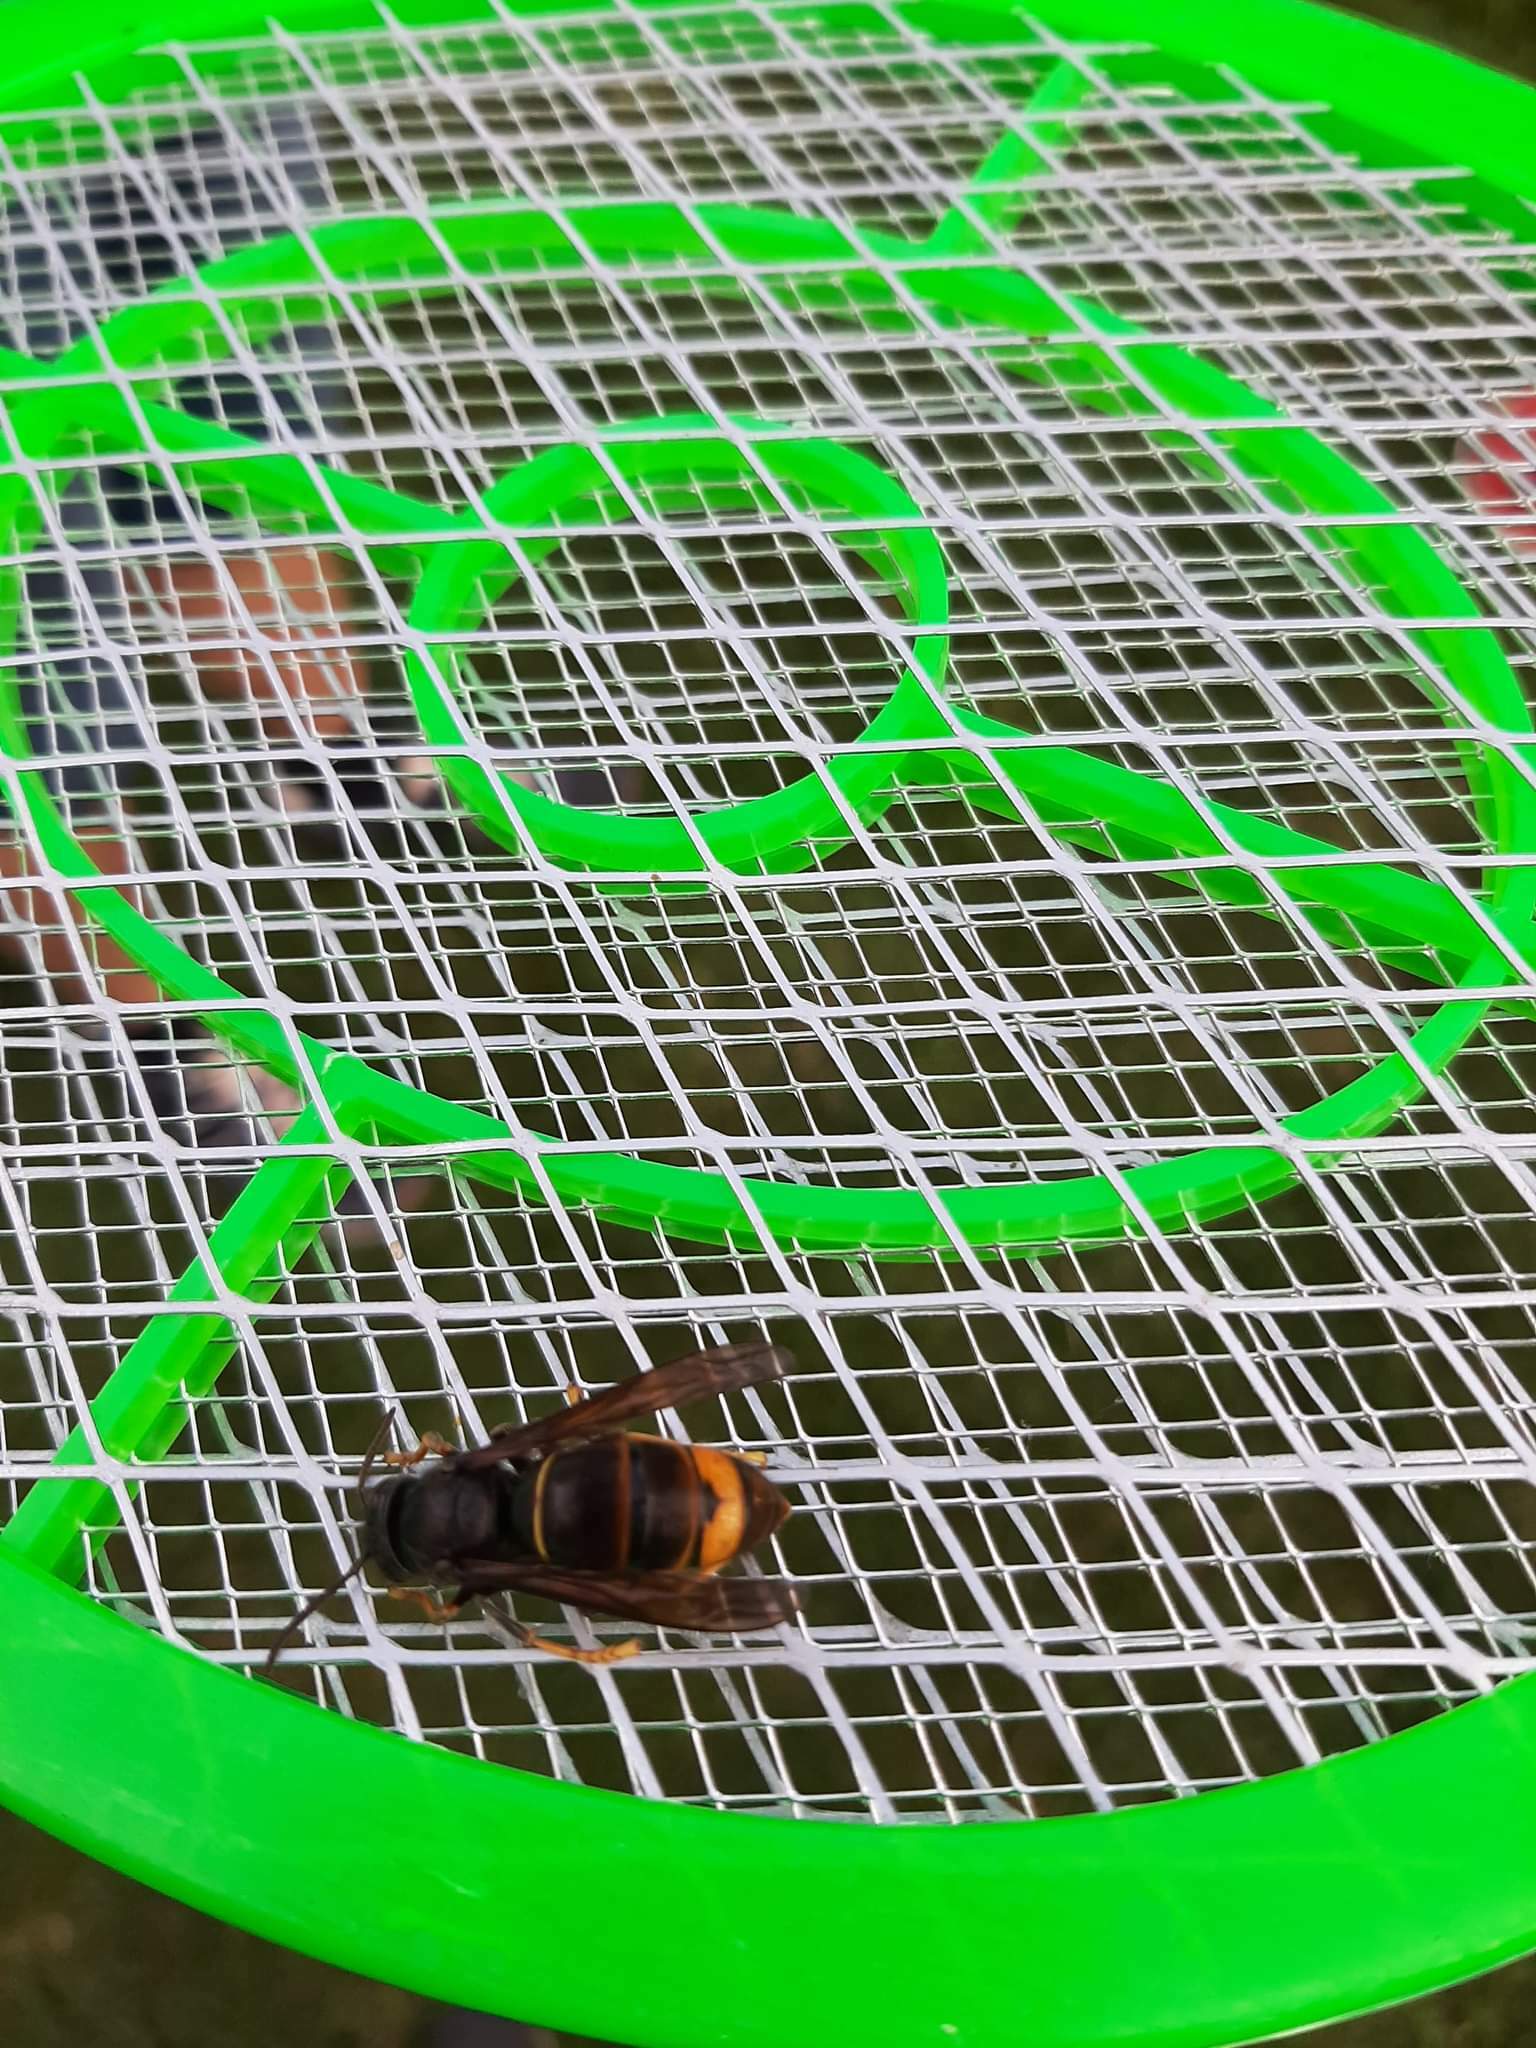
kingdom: Animalia
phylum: Arthropoda
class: Insecta
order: Hymenoptera
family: Vespidae
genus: Vespa
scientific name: Vespa velutina
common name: Asian hornet
